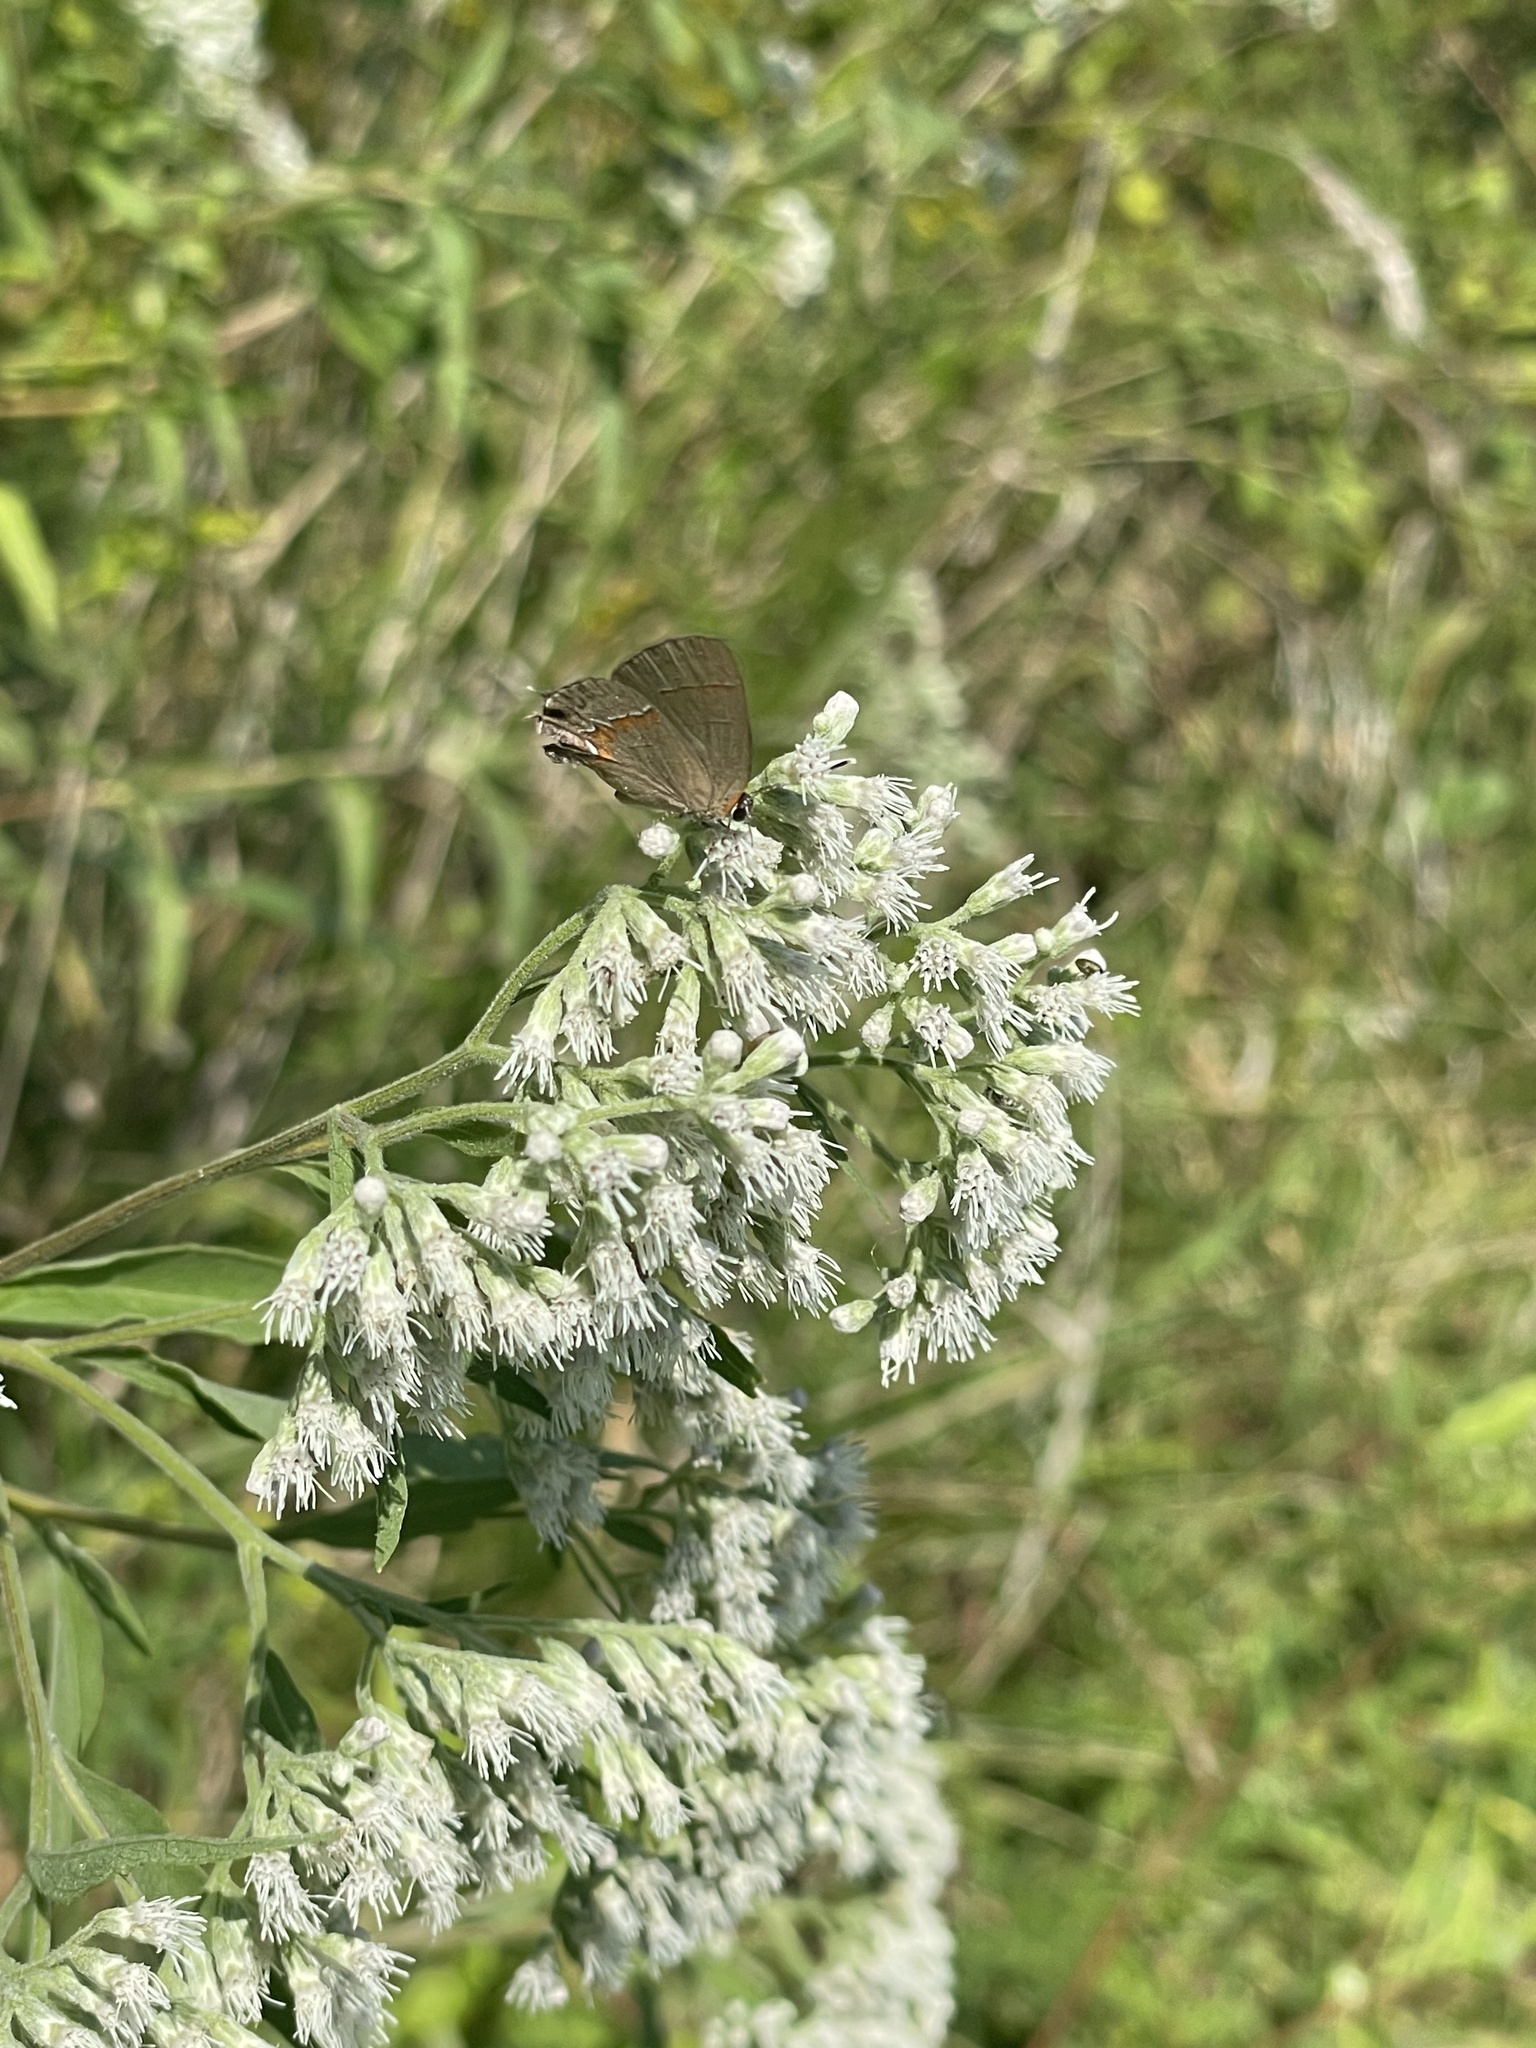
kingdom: Animalia
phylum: Arthropoda
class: Insecta
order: Lepidoptera
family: Lycaenidae
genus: Calycopis
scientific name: Calycopis cecrops
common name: Red-banded hairstreak
